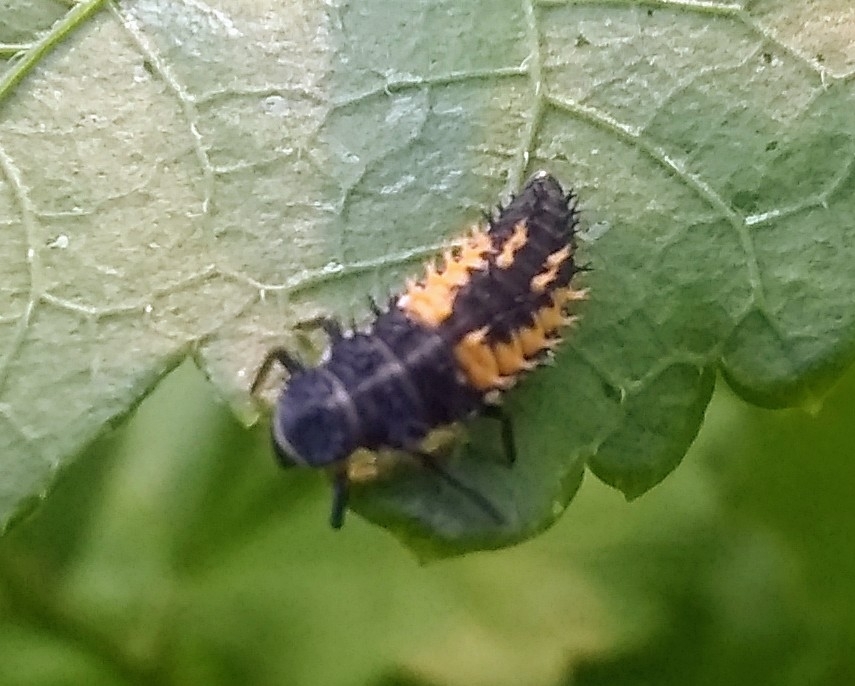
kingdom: Animalia
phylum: Arthropoda
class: Insecta
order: Coleoptera
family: Coccinellidae
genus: Harmonia
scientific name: Harmonia axyridis
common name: Harlequin ladybird
